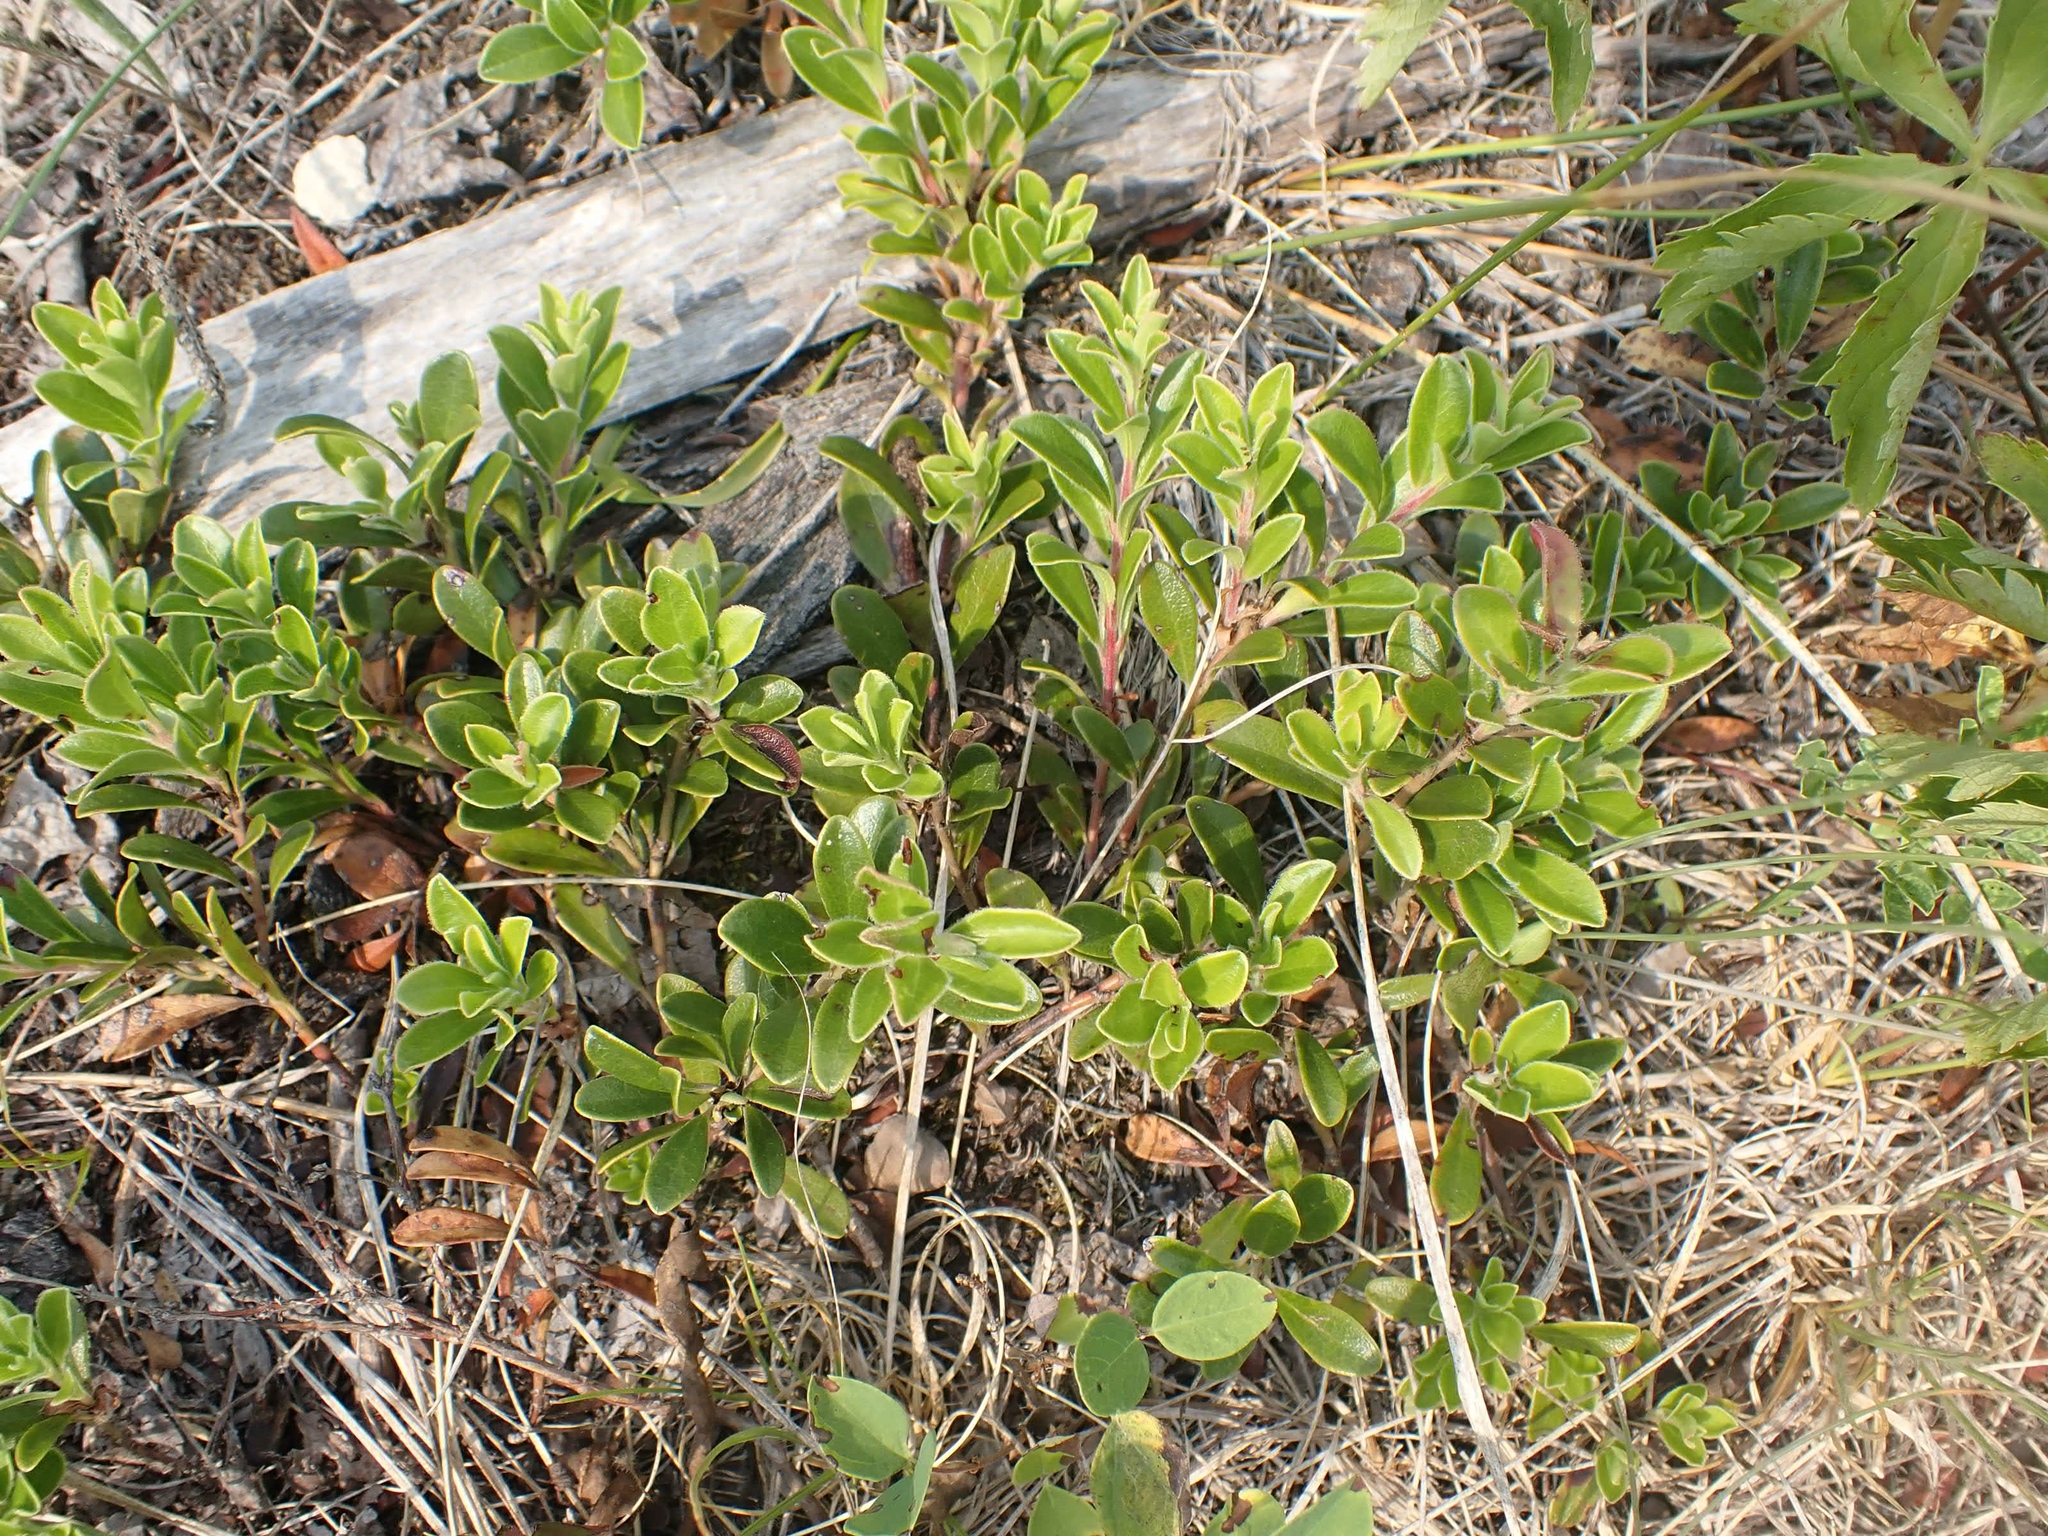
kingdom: Plantae
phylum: Tracheophyta
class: Magnoliopsida
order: Ericales
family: Ericaceae
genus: Arctostaphylos
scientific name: Arctostaphylos uva-ursi
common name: Bearberry
